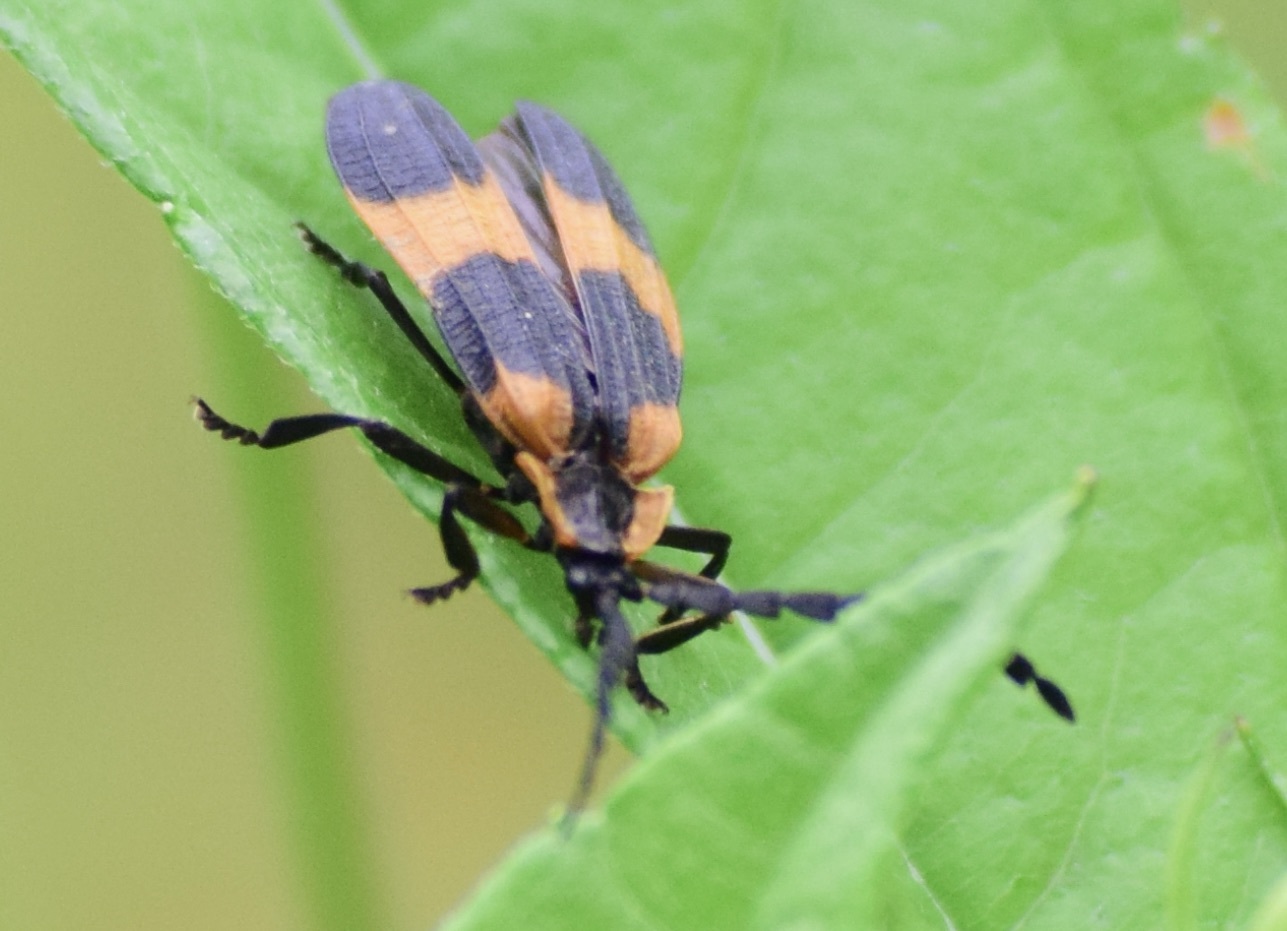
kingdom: Animalia
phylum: Arthropoda
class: Insecta
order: Coleoptera
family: Lycidae
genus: Calopteron
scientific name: Calopteron reticulatum
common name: Banded net-winged beetle
